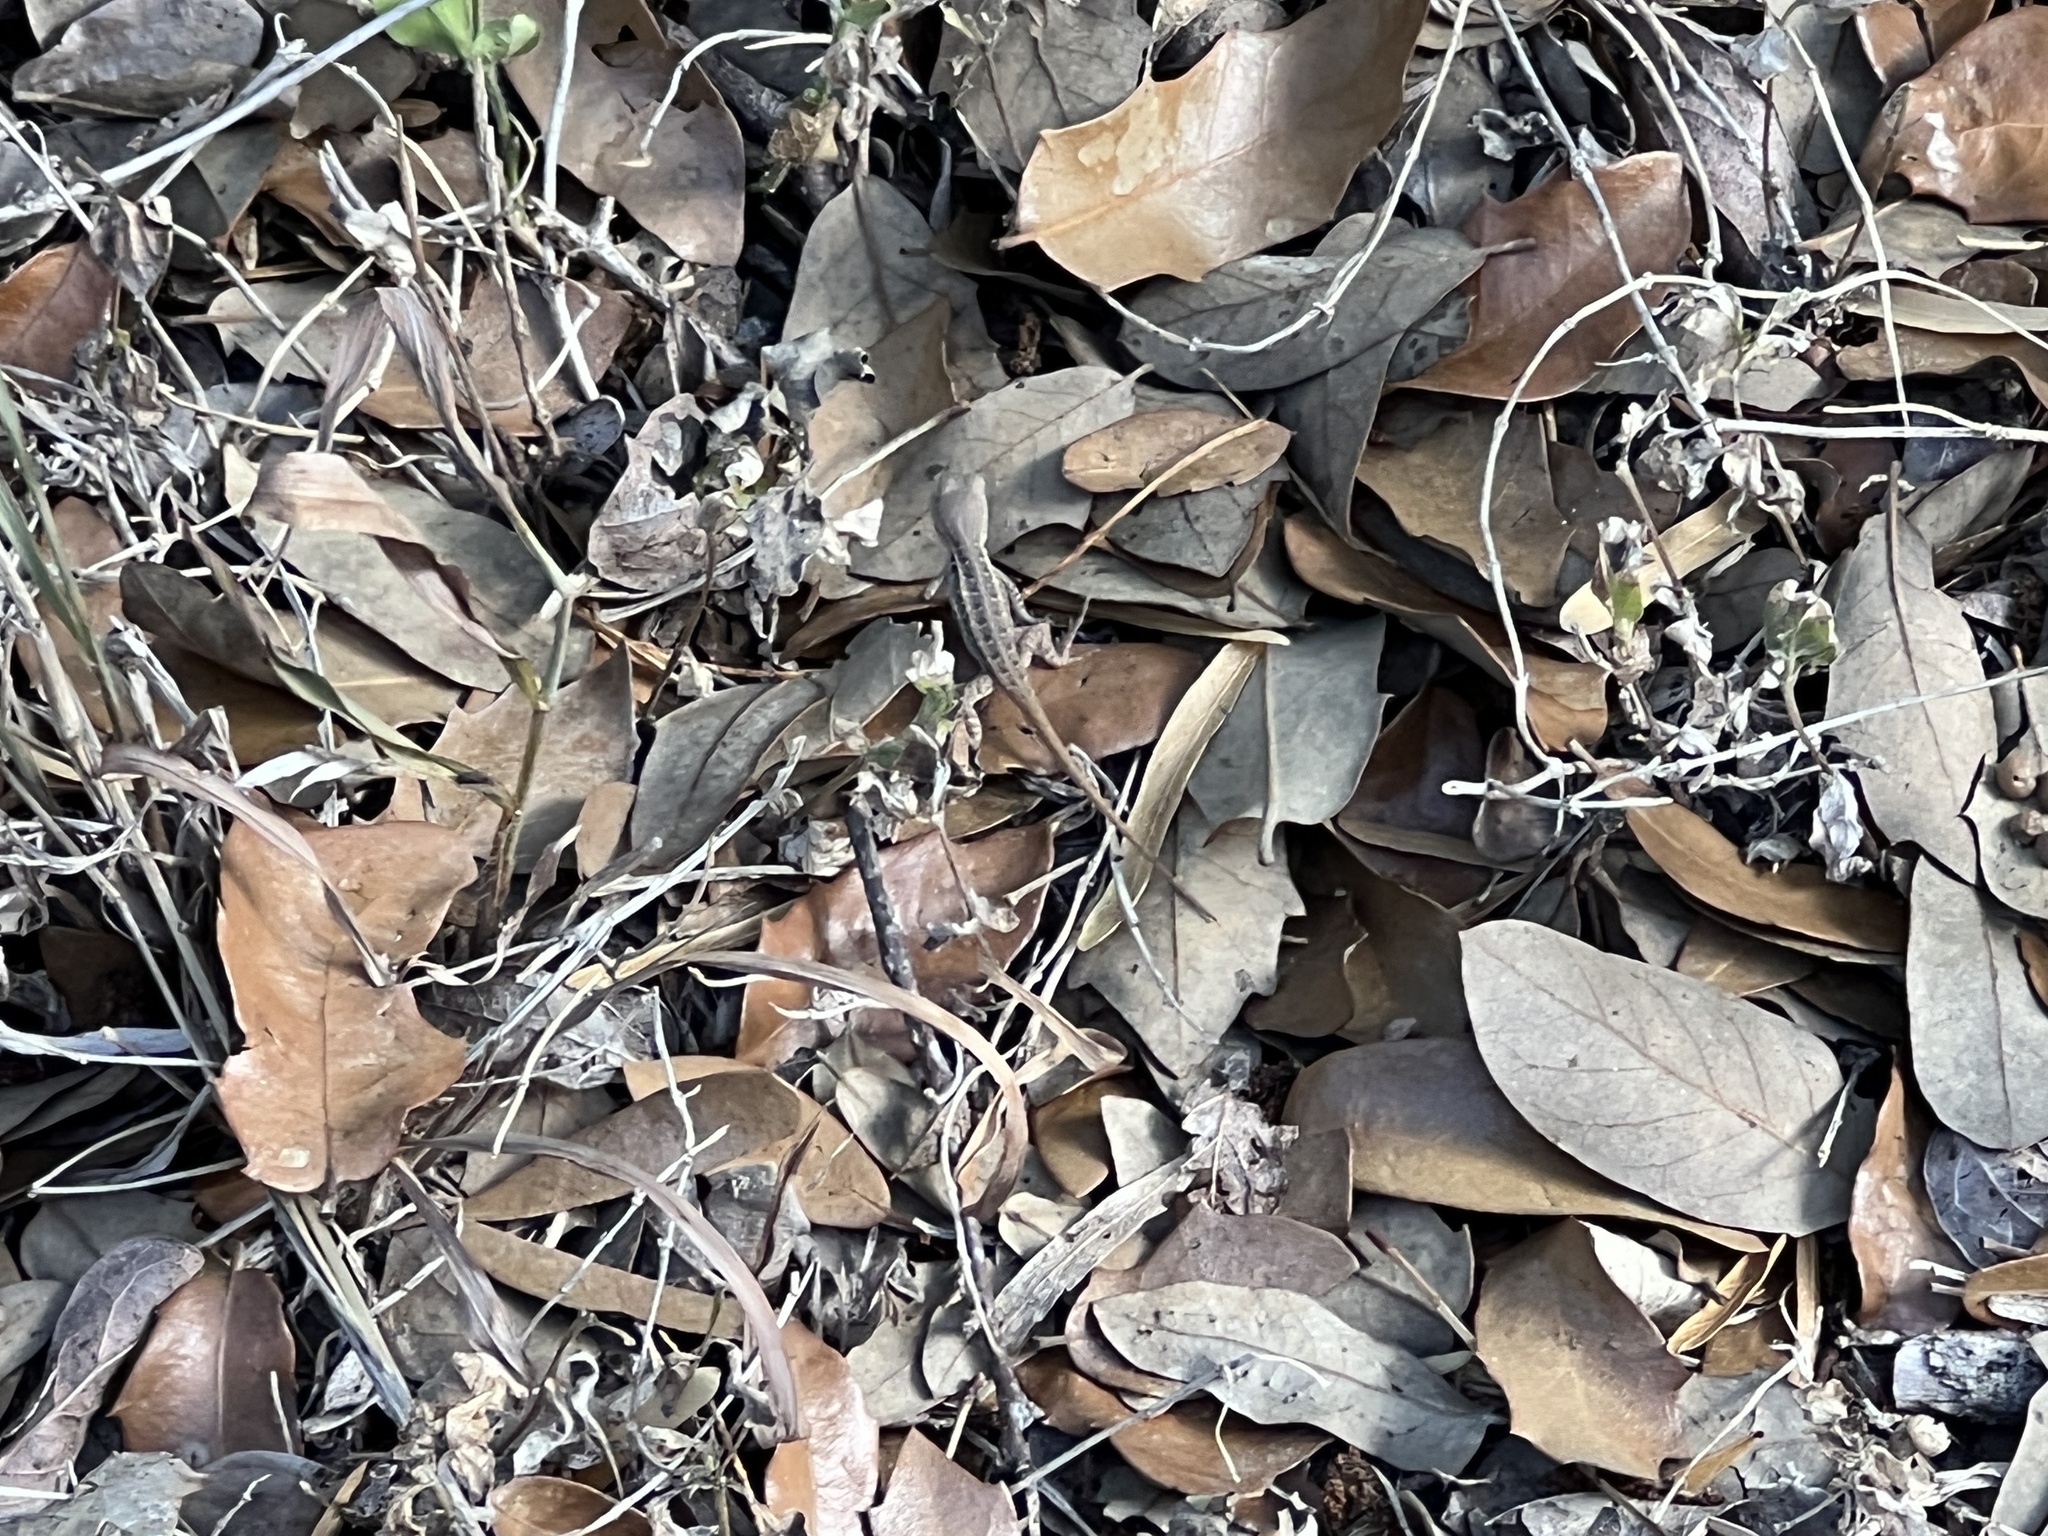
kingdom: Animalia
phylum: Chordata
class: Squamata
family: Phrynosomatidae
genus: Sceloporus
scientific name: Sceloporus variabilis
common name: Rosebelly lizard
